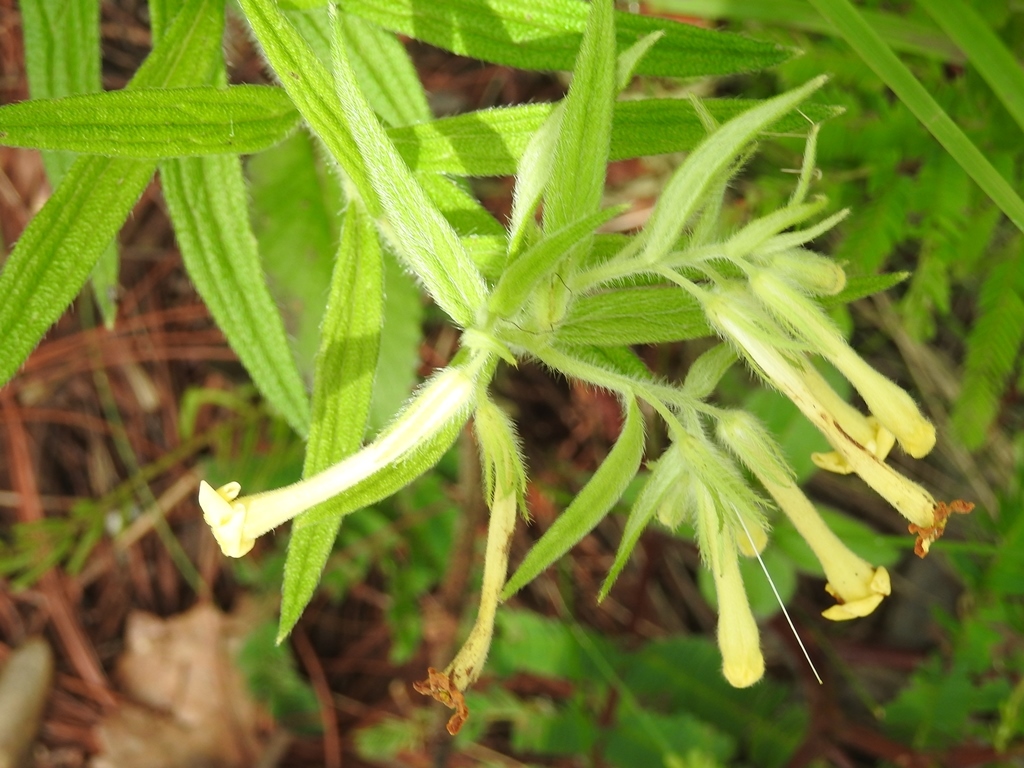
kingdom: Plantae
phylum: Tracheophyta
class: Magnoliopsida
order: Boraginales
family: Boraginaceae
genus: Lithospermum
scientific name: Lithospermum guatemalense
